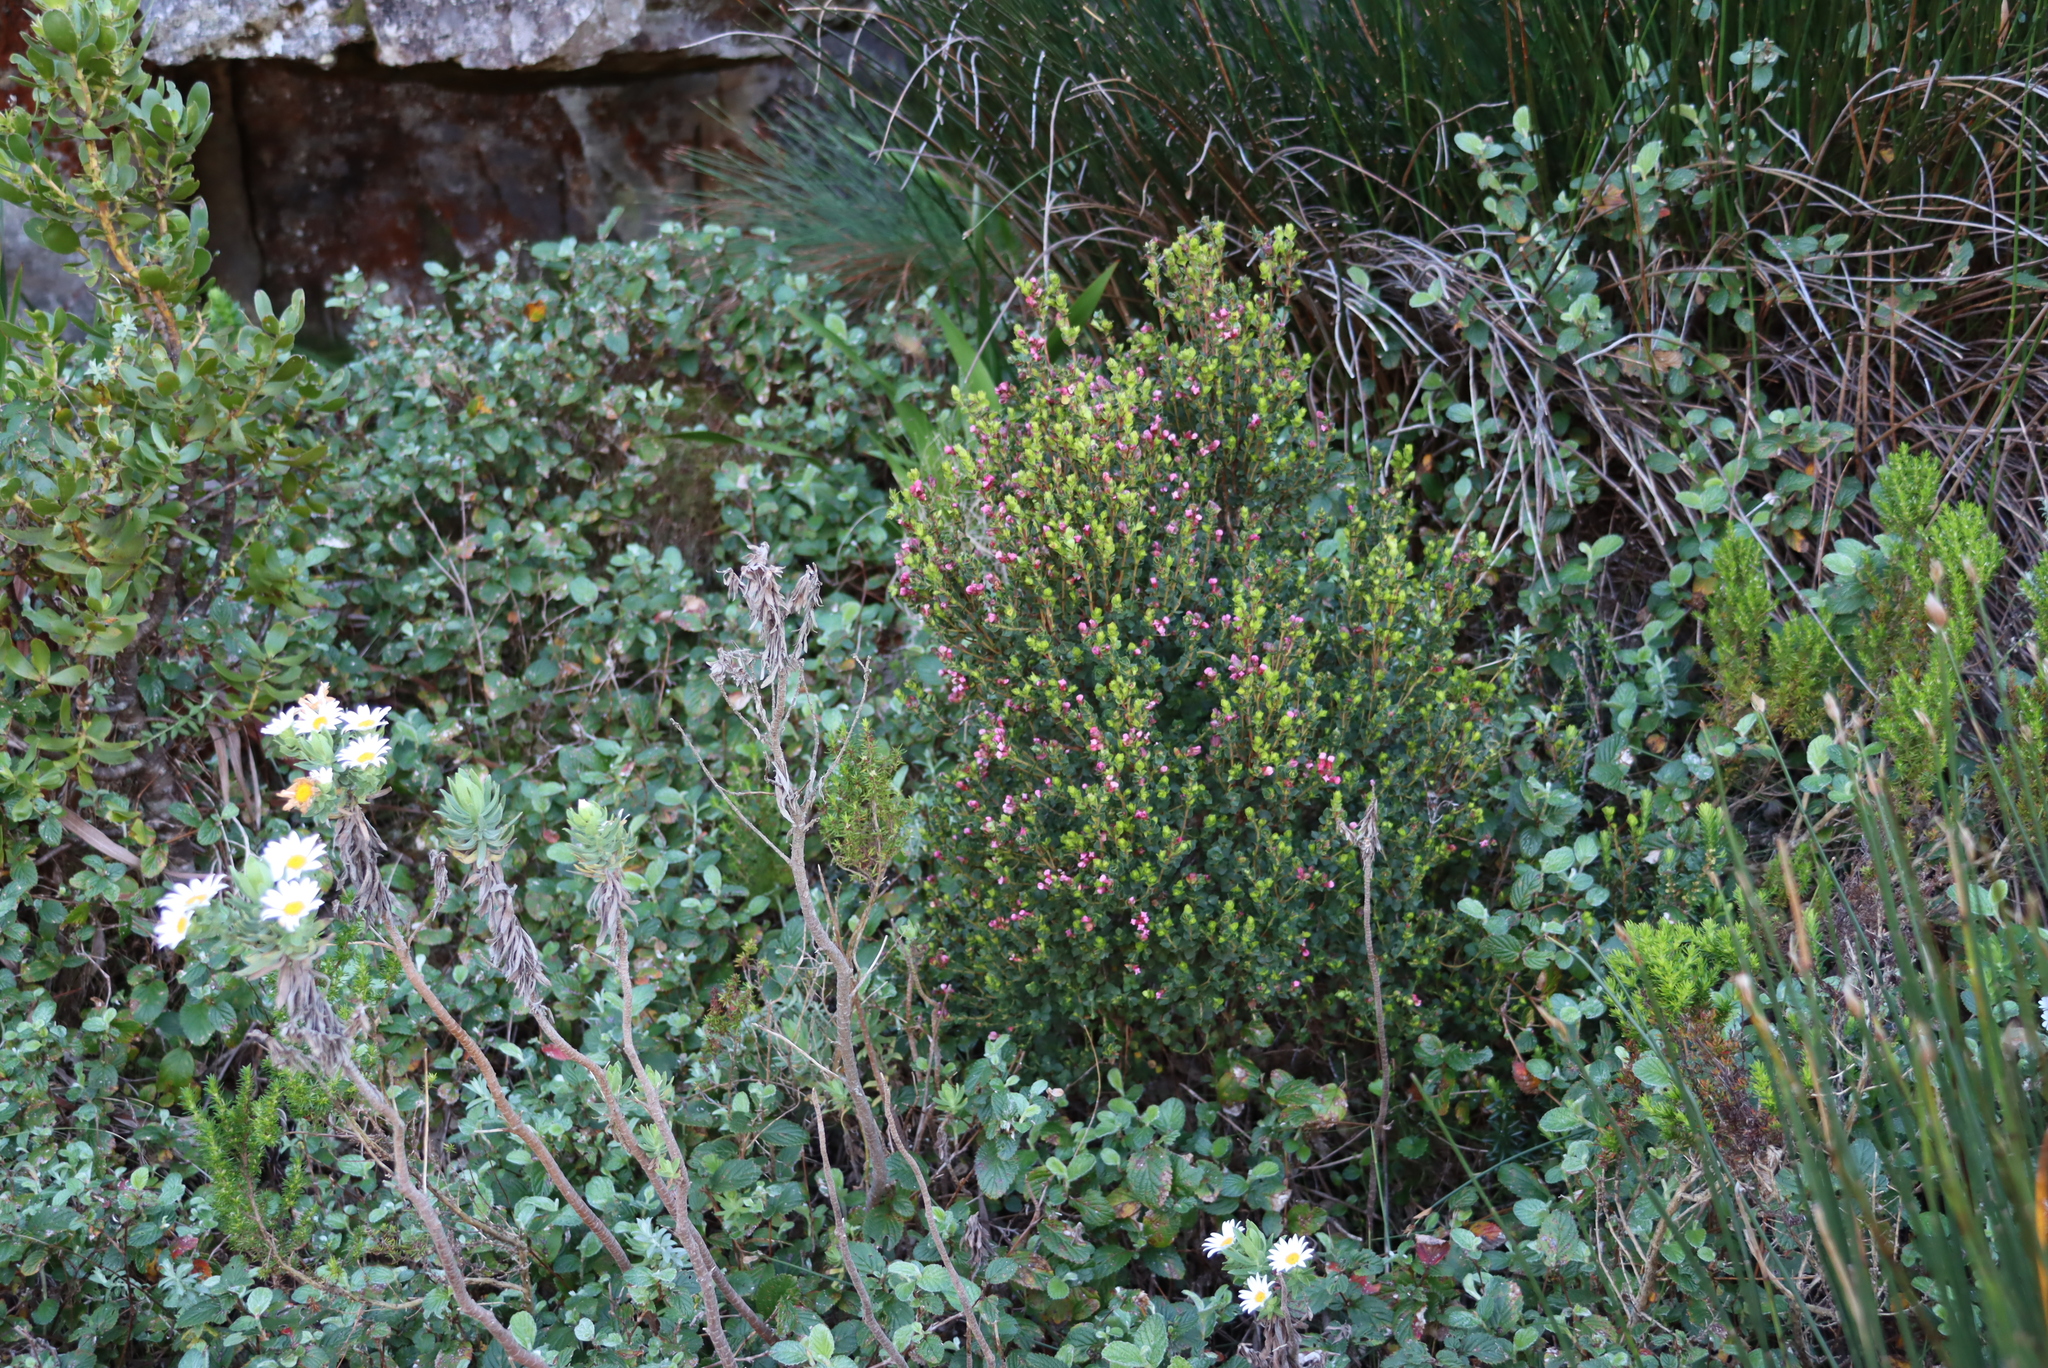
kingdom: Plantae
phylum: Tracheophyta
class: Magnoliopsida
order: Rosales
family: Rosaceae
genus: Cliffortia
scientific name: Cliffortia odorata
